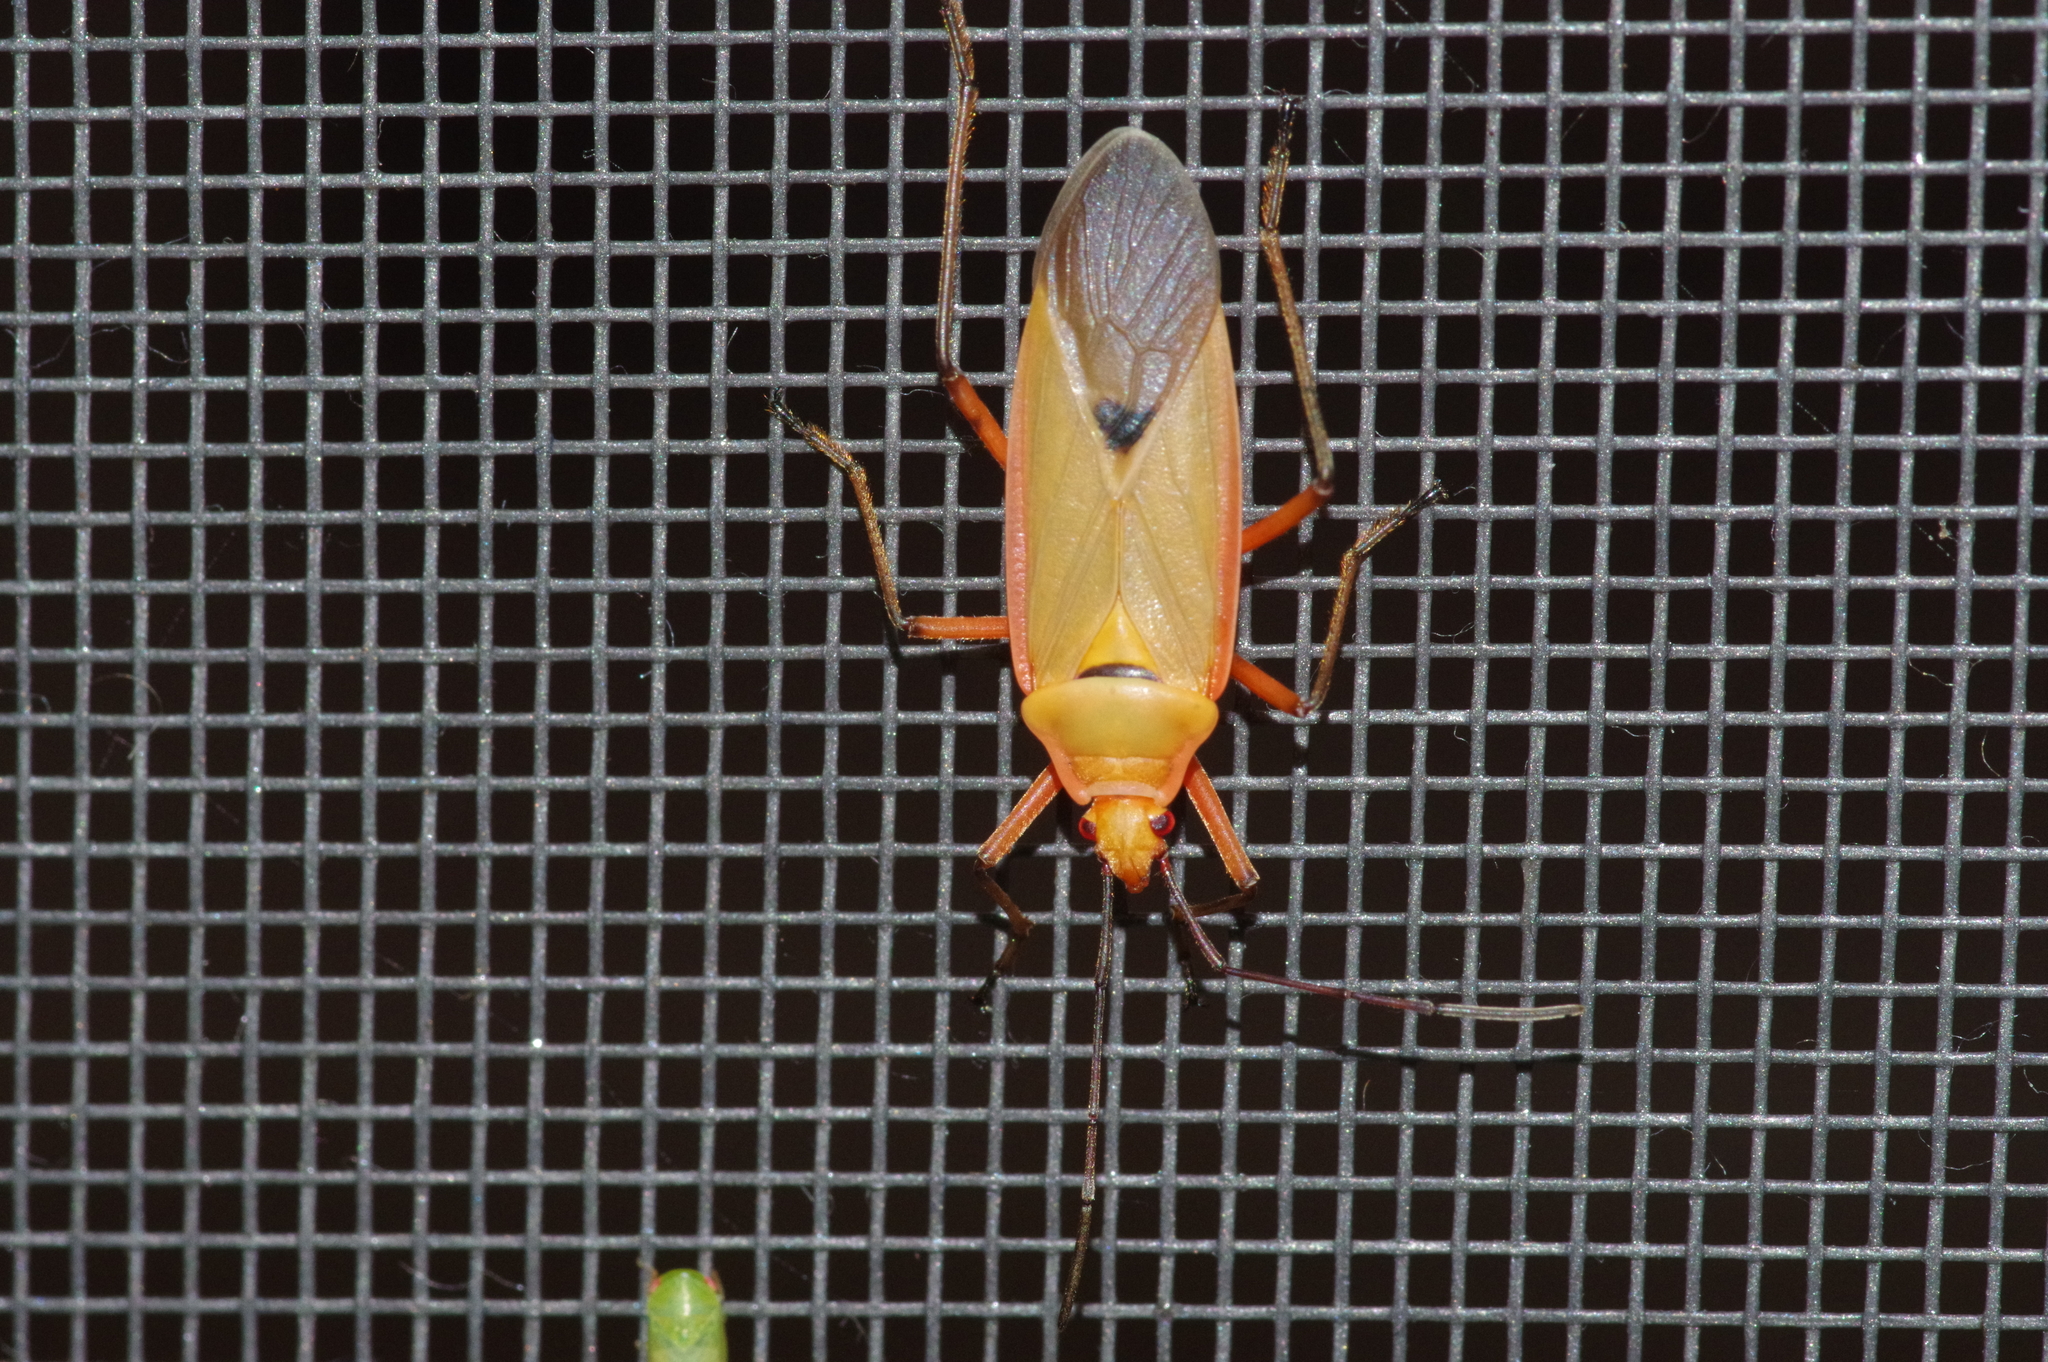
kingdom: Animalia
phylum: Arthropoda
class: Insecta
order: Hemiptera
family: Pyrrhocoridae
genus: Dysdercus
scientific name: Dysdercus fuscomaculatus
